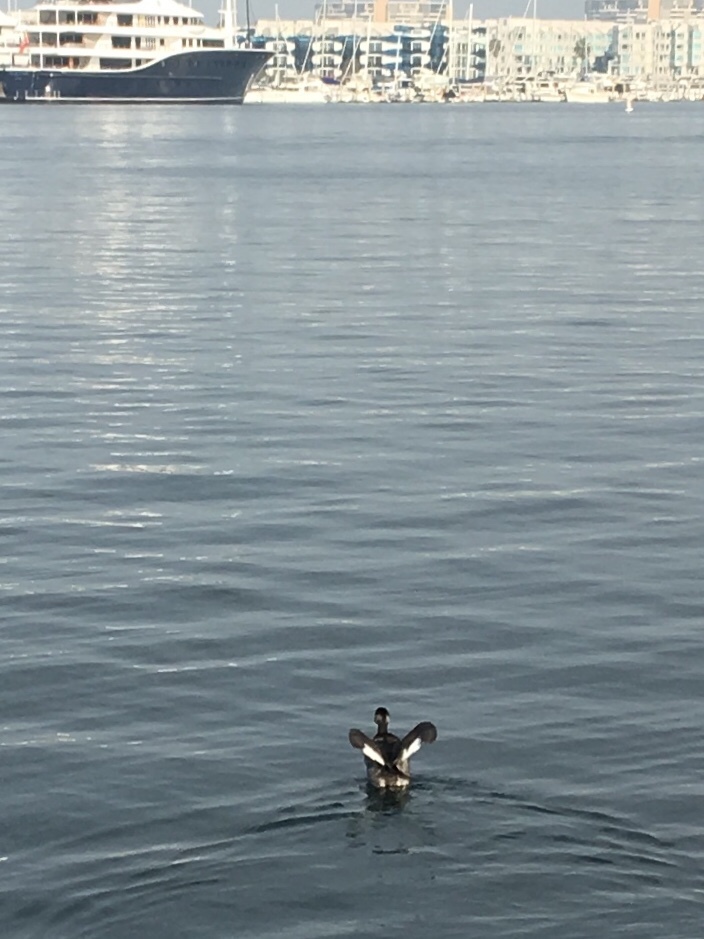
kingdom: Animalia
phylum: Chordata
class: Aves
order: Podicipediformes
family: Podicipedidae
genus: Podiceps
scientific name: Podiceps nigricollis
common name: Black-necked grebe
